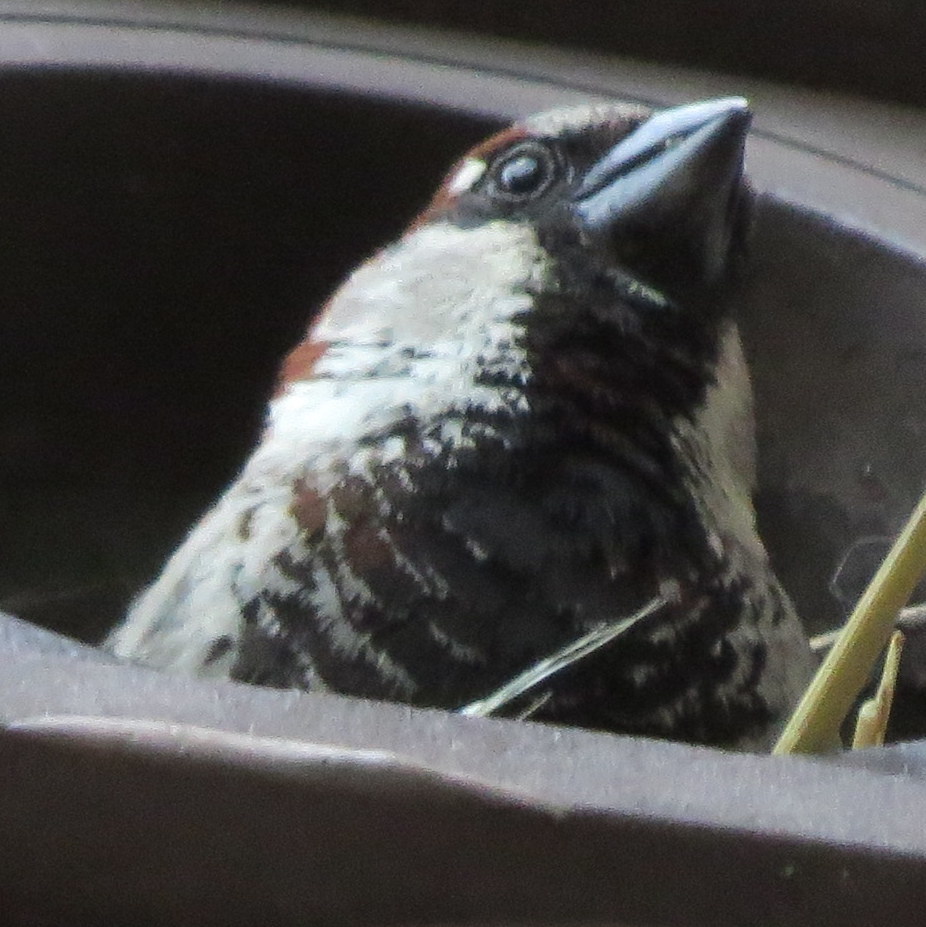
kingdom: Animalia
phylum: Chordata
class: Aves
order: Passeriformes
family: Passeridae
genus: Passer
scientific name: Passer domesticus
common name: House sparrow
